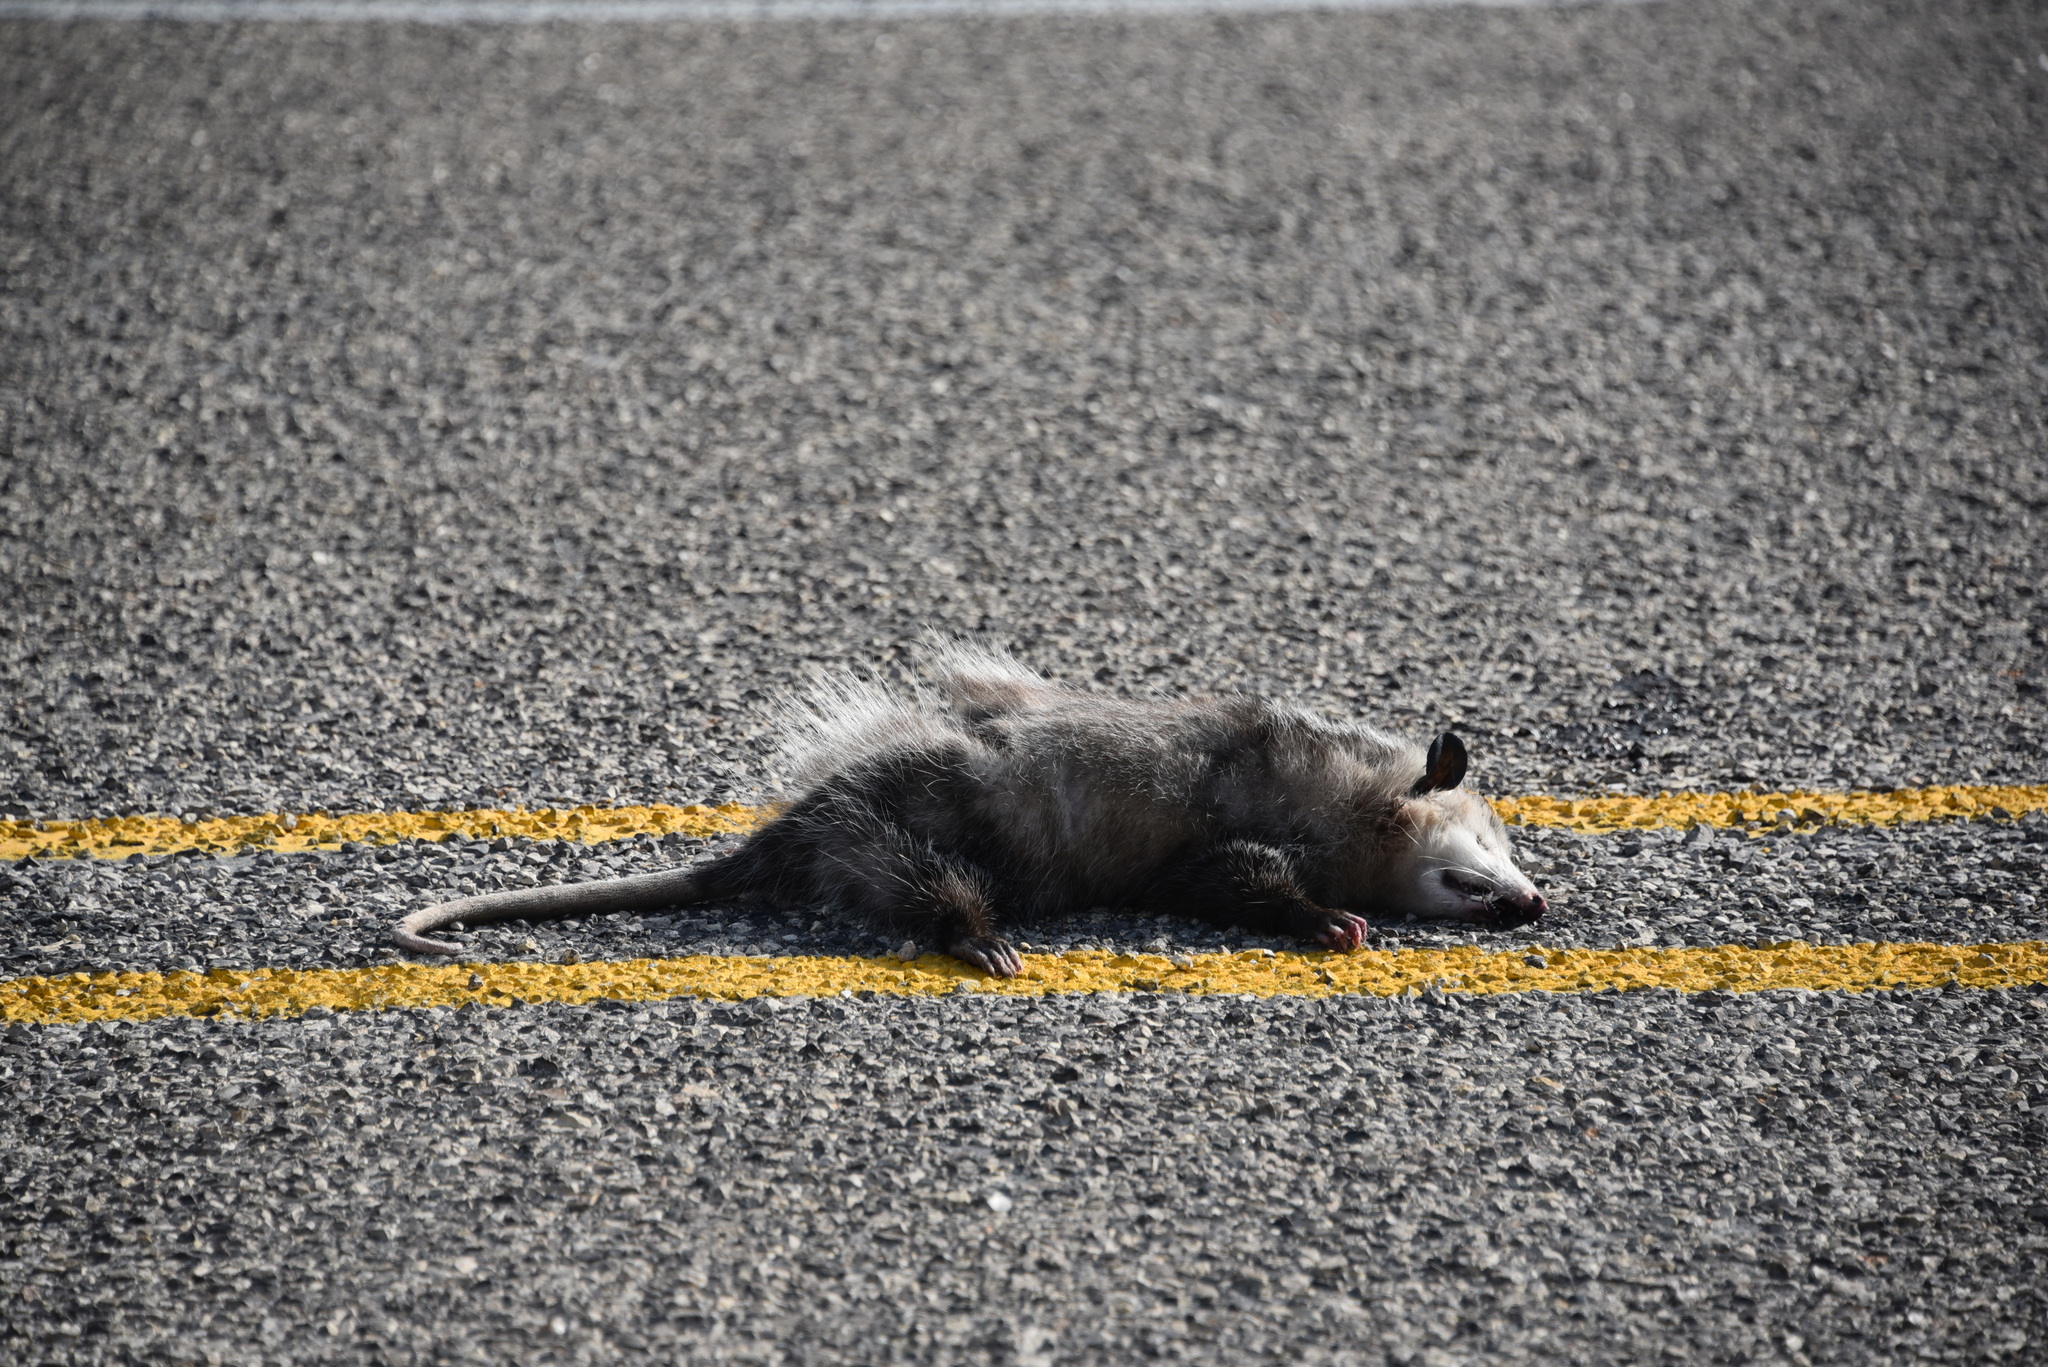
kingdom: Animalia
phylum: Chordata
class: Mammalia
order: Didelphimorphia
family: Didelphidae
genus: Didelphis
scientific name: Didelphis virginiana
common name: Virginia opossum
